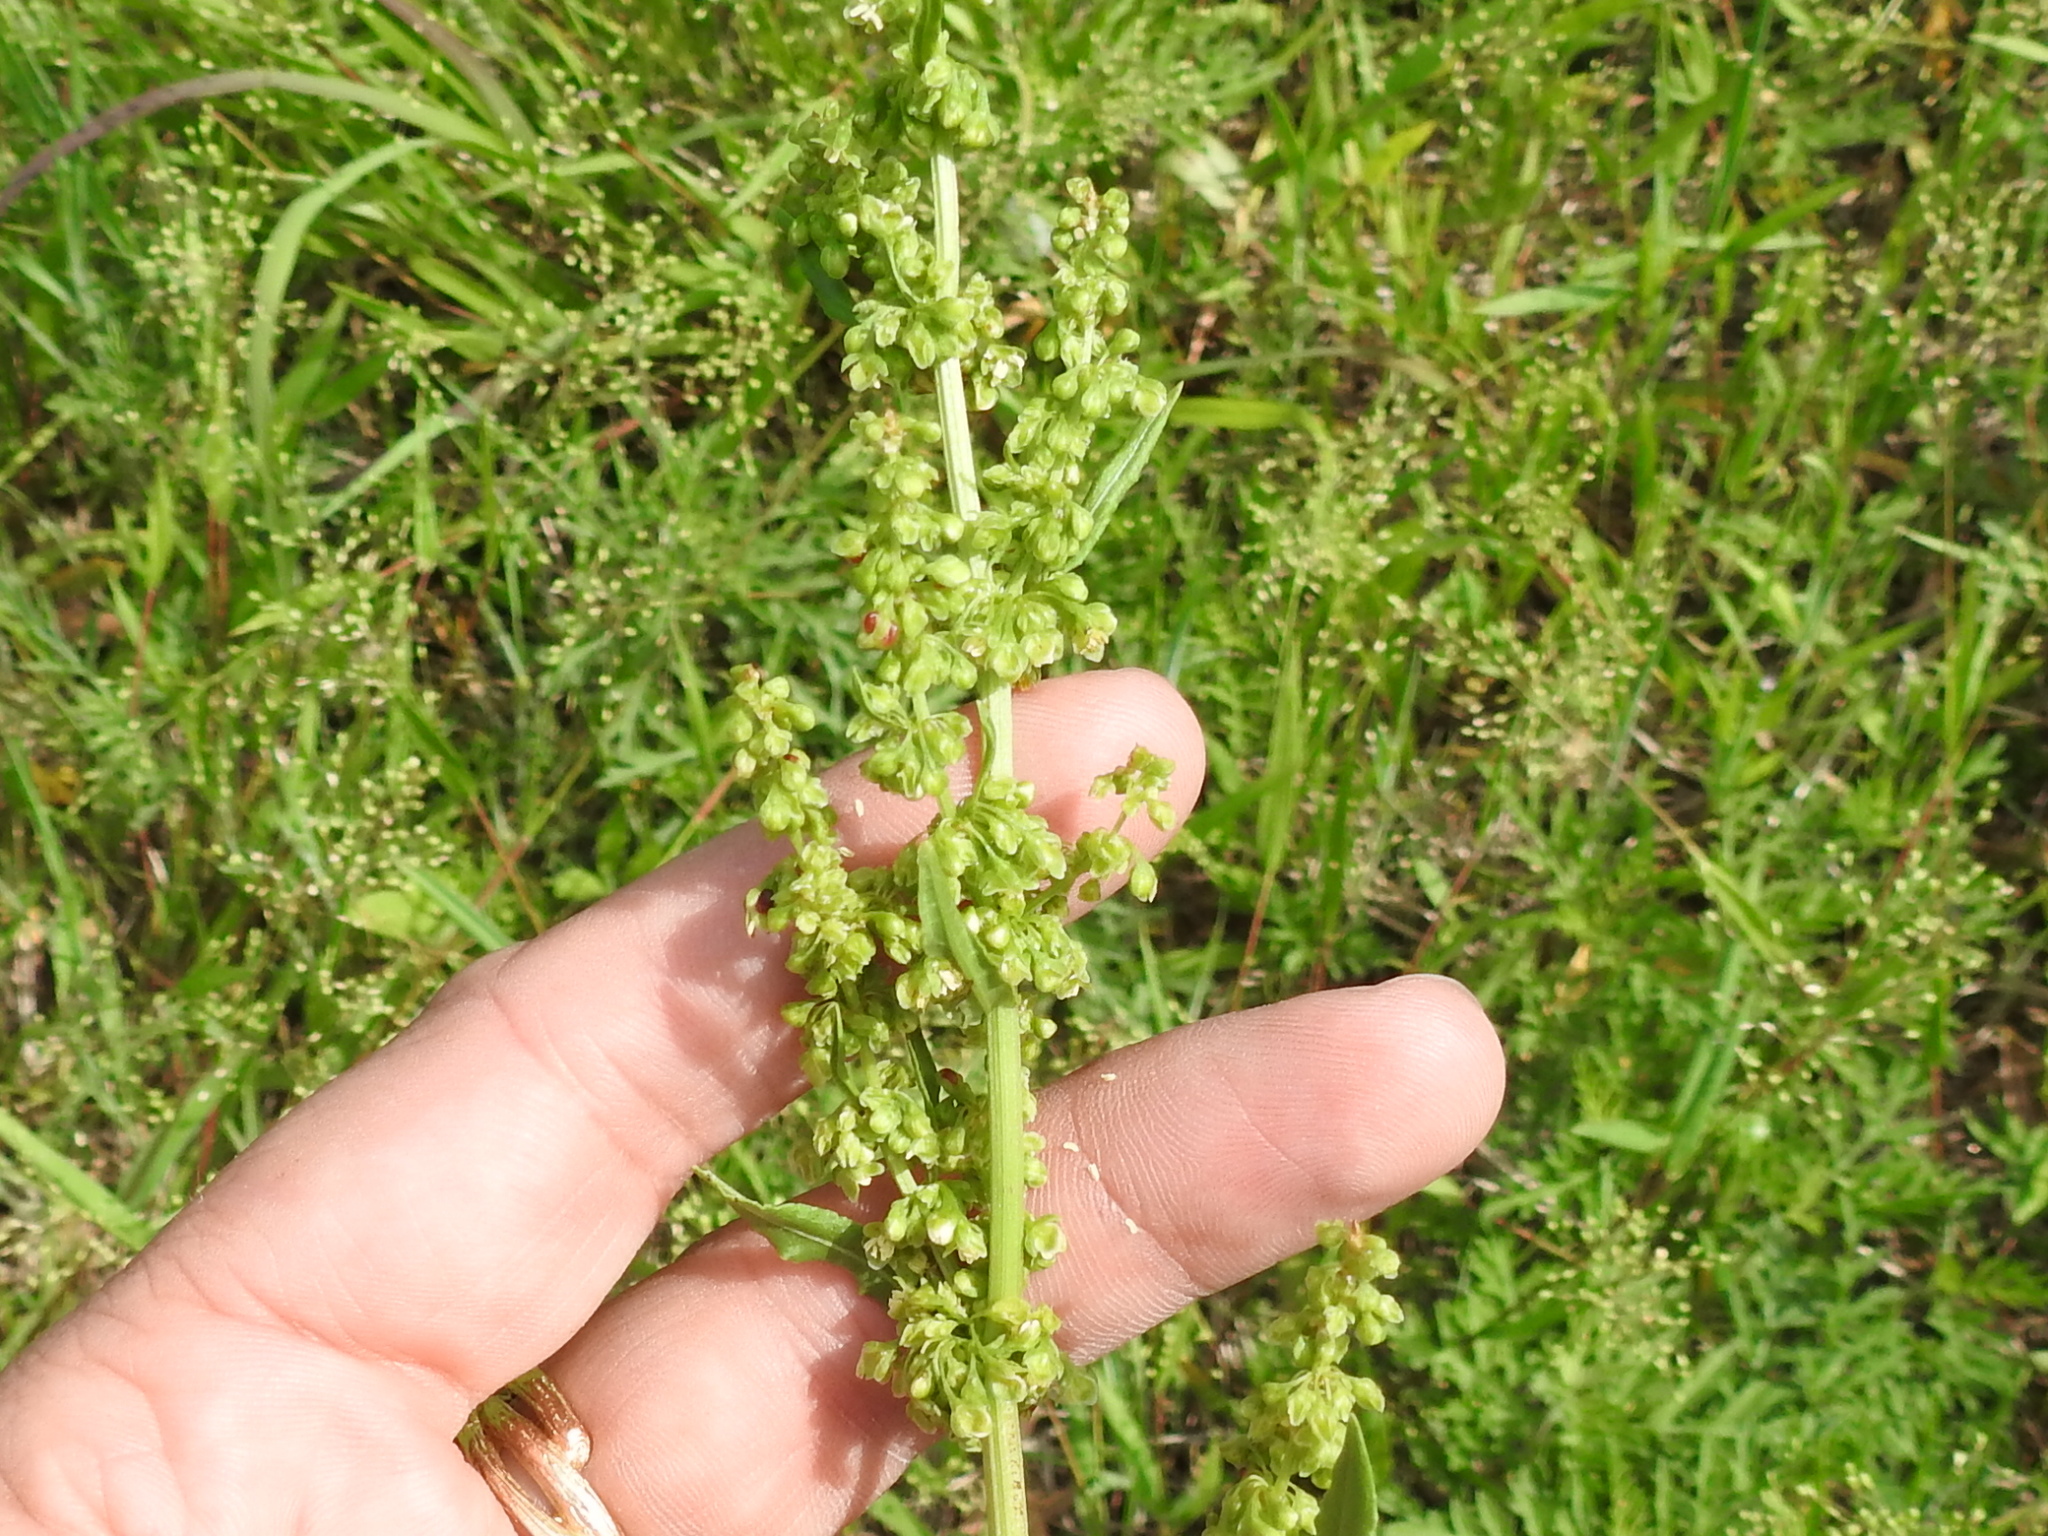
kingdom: Plantae
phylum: Tracheophyta
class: Magnoliopsida
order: Caryophyllales
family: Polygonaceae
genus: Rumex
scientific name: Rumex crispus
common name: Curled dock
